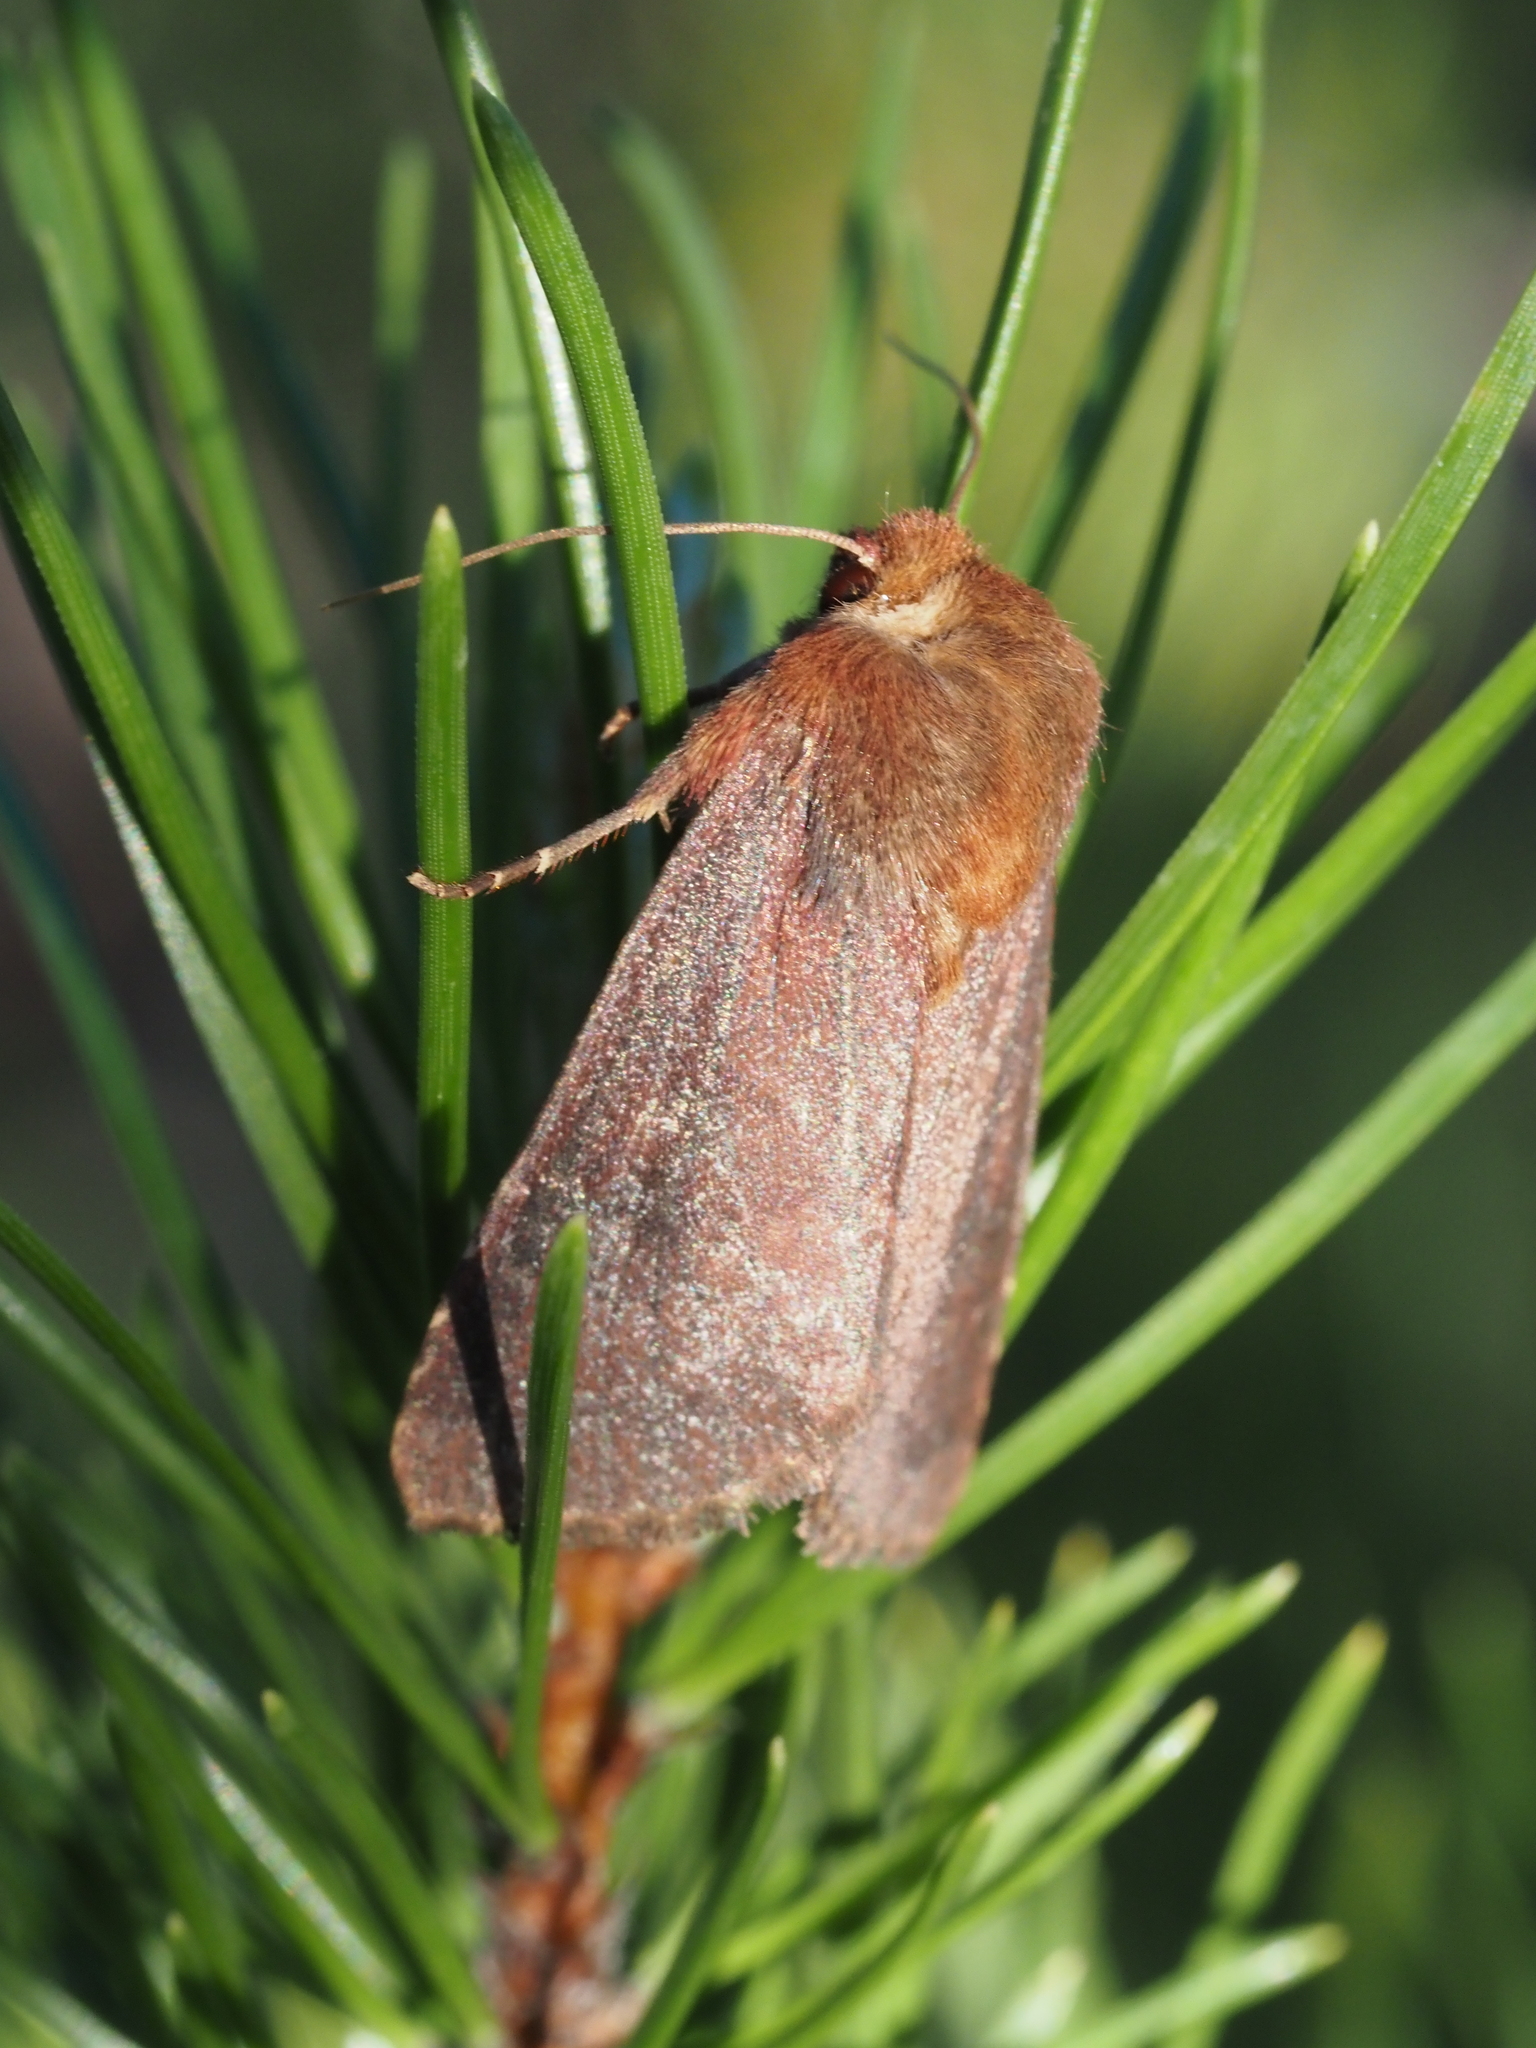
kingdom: Animalia
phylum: Arthropoda
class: Insecta
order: Lepidoptera
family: Noctuidae
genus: Sideridis
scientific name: Sideridis maryx
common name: Maroonwing moth
